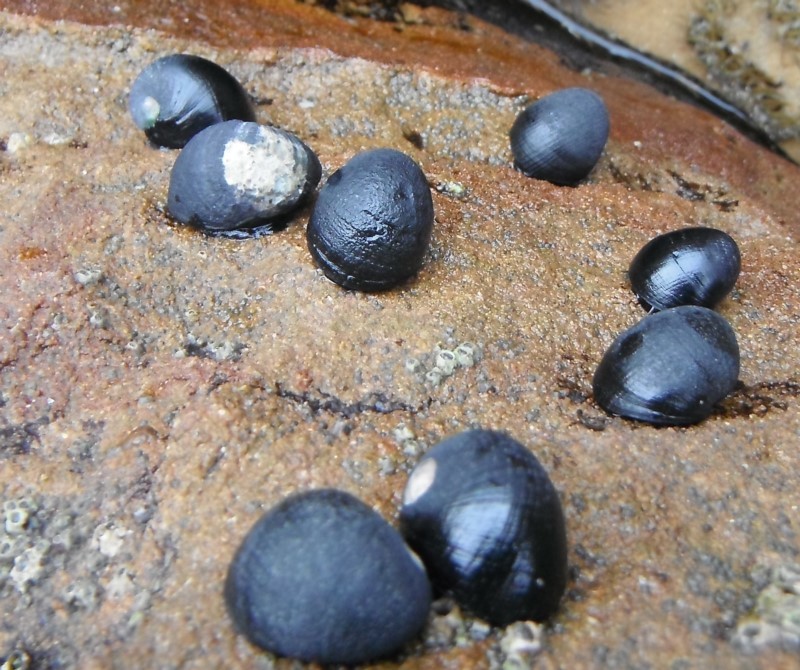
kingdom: Animalia
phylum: Mollusca
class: Gastropoda
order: Cycloneritida
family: Neritidae
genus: Nerita
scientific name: Nerita melanotragus
